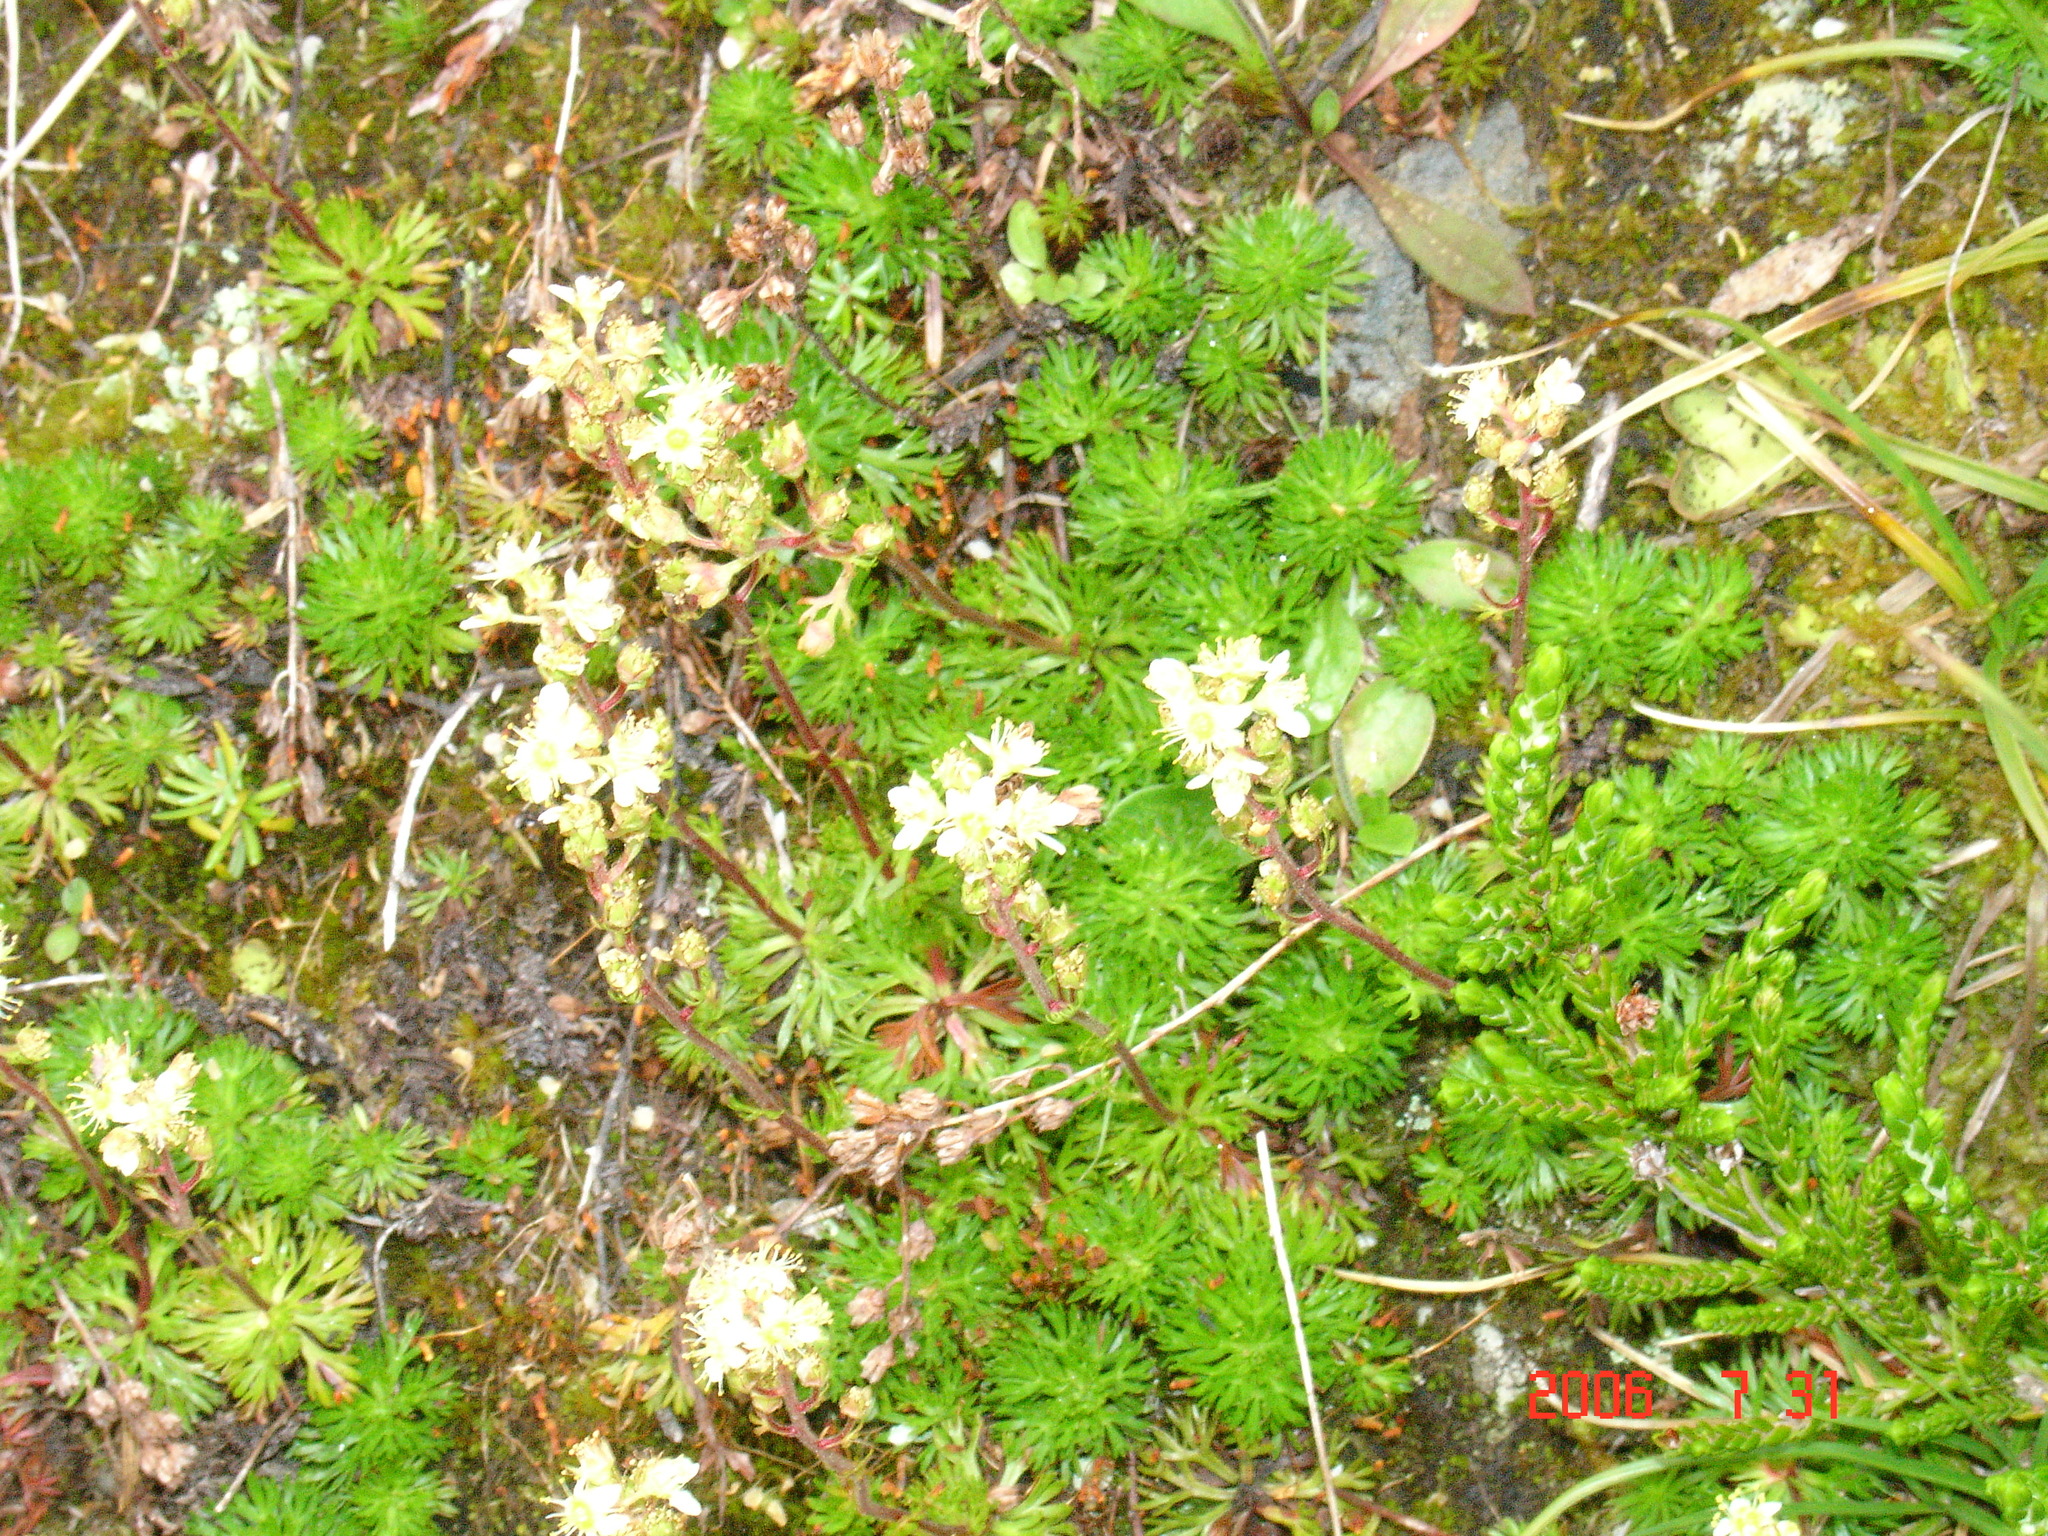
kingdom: Plantae
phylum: Tracheophyta
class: Magnoliopsida
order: Rosales
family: Rosaceae
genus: Luetkea
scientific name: Luetkea pectinata
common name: Partridgefoot
